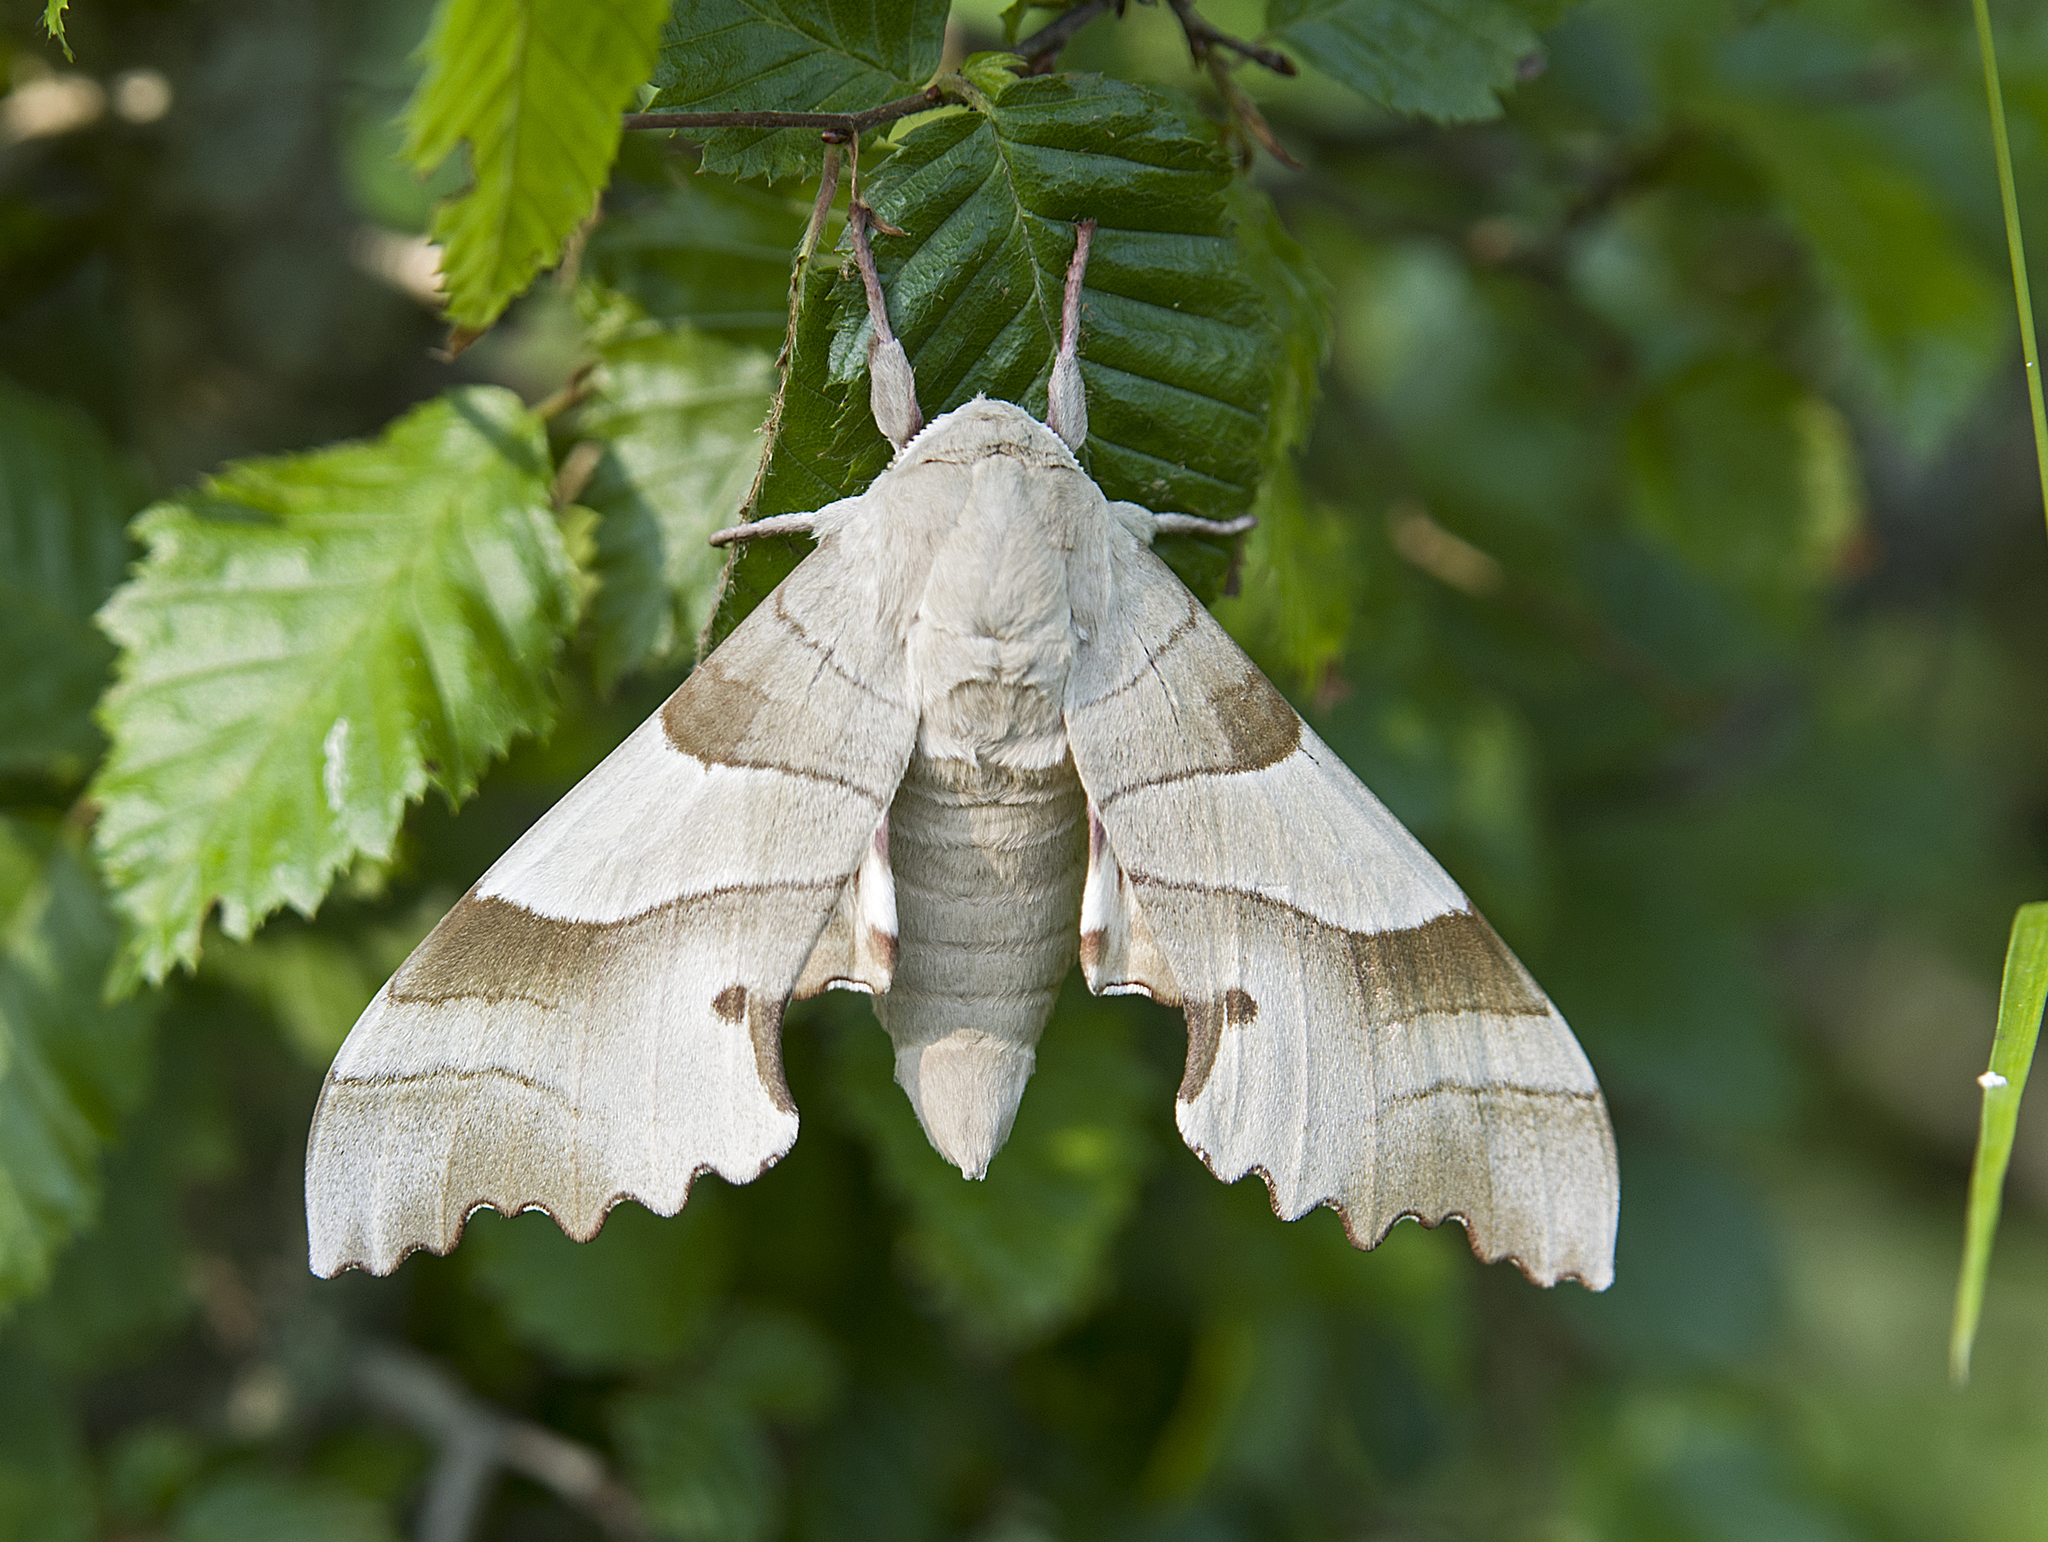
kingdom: Animalia
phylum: Arthropoda
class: Insecta
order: Lepidoptera
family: Sphingidae
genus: Marumba
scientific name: Marumba quercus
